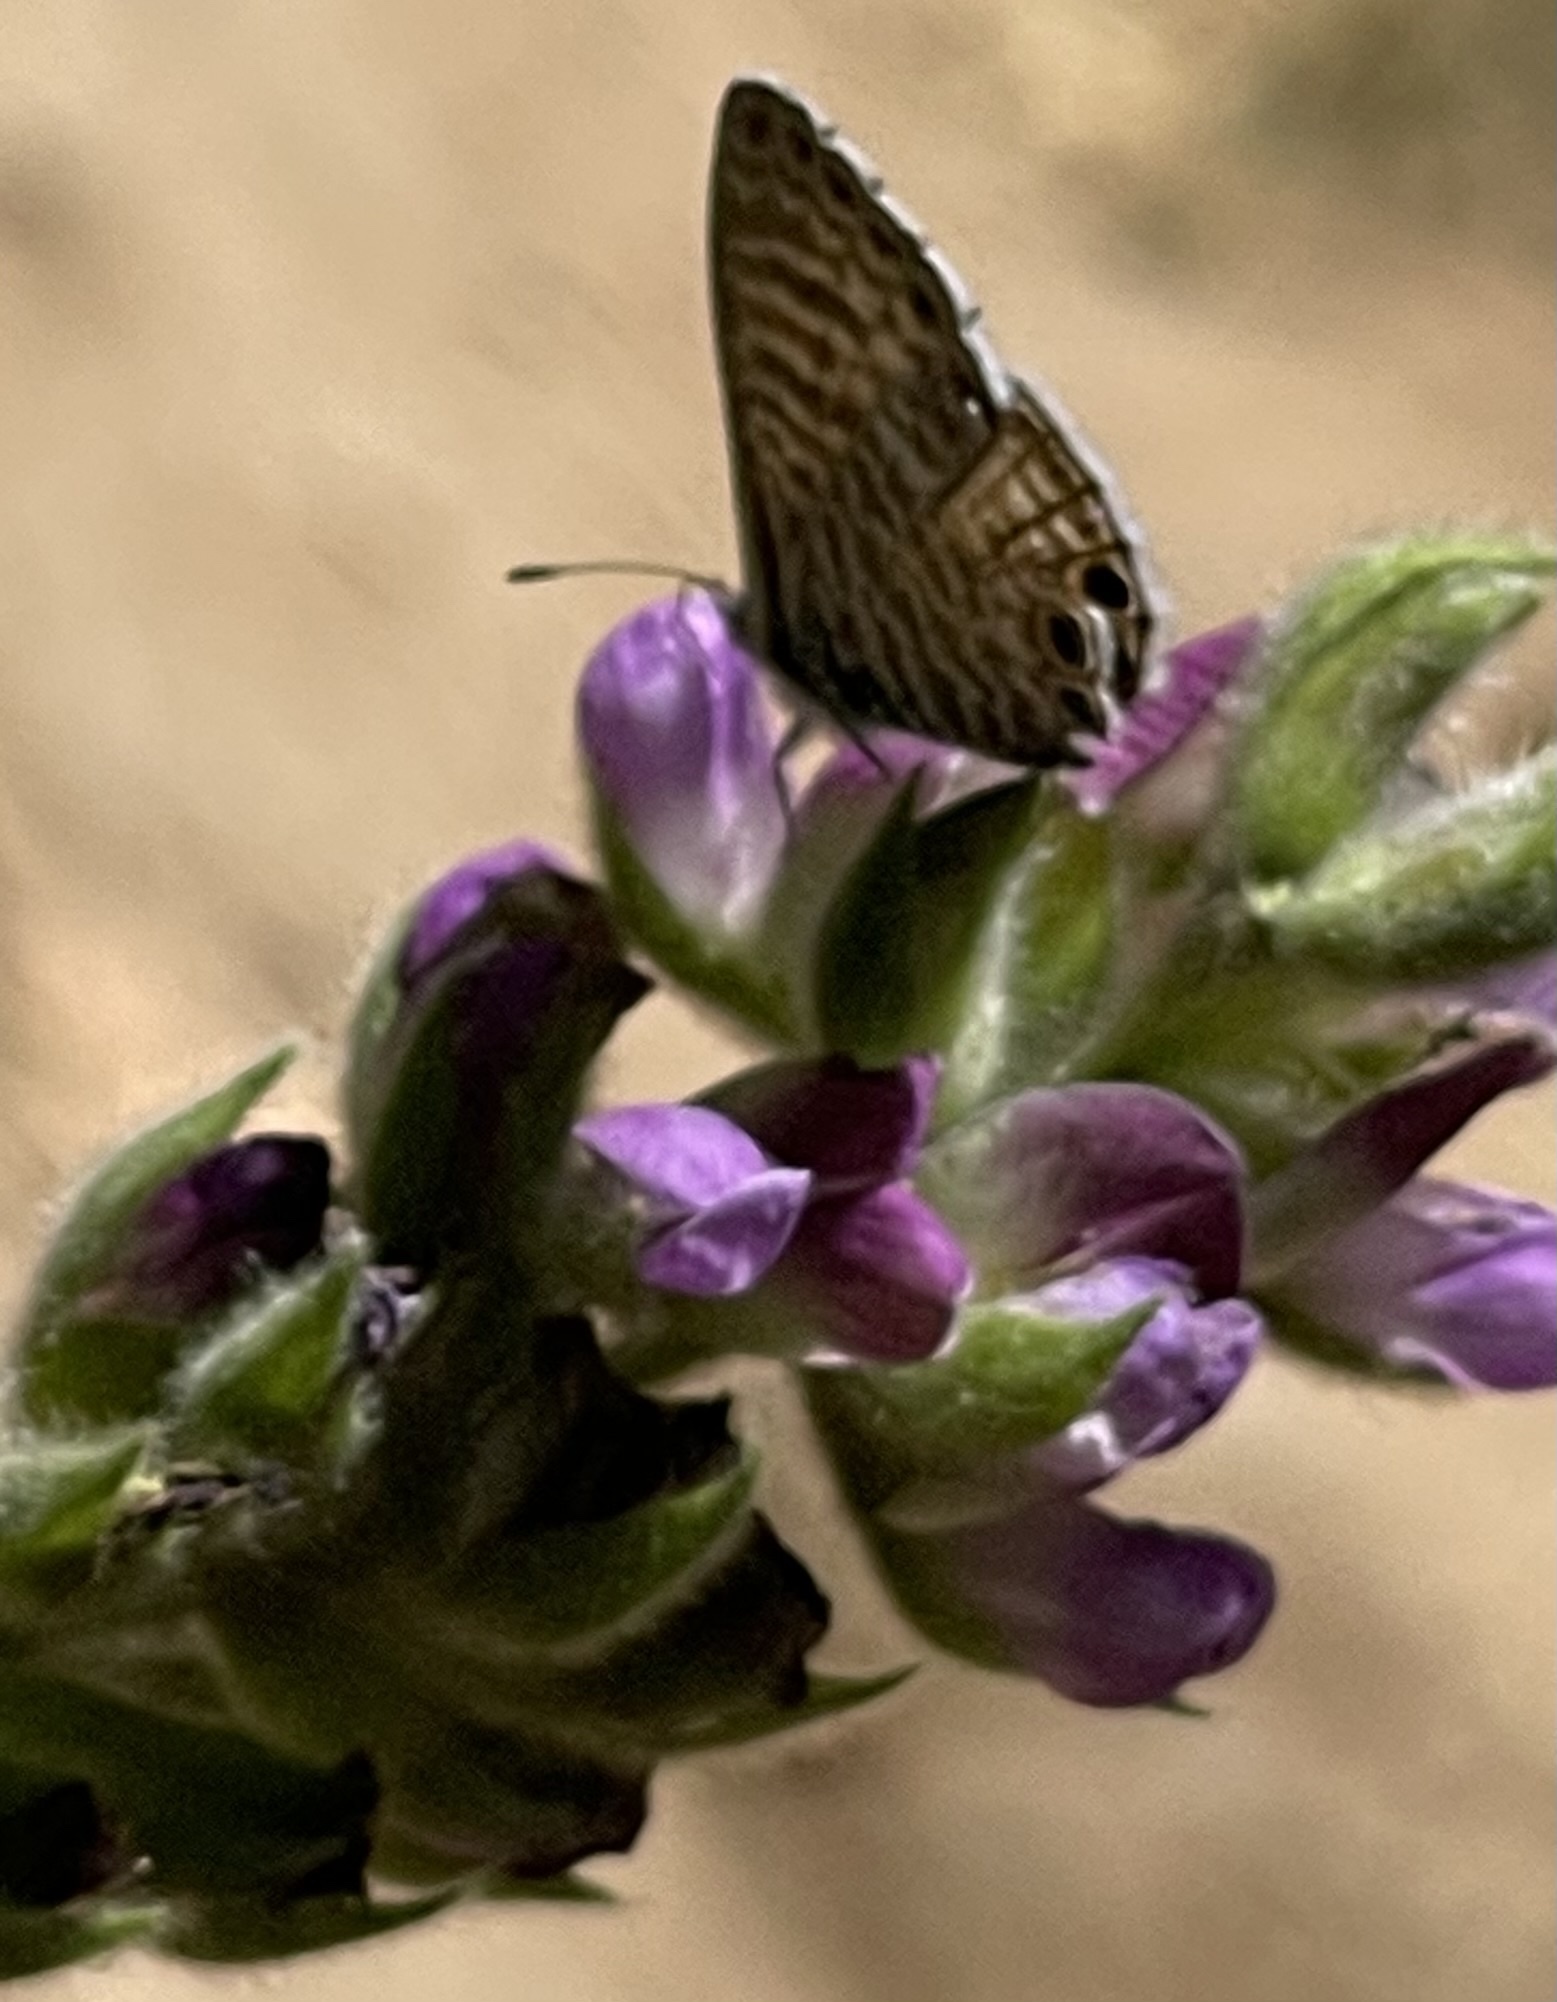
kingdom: Animalia
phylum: Arthropoda
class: Insecta
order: Lepidoptera
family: Lycaenidae
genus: Leptotes
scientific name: Leptotes marina
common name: Marine blue
